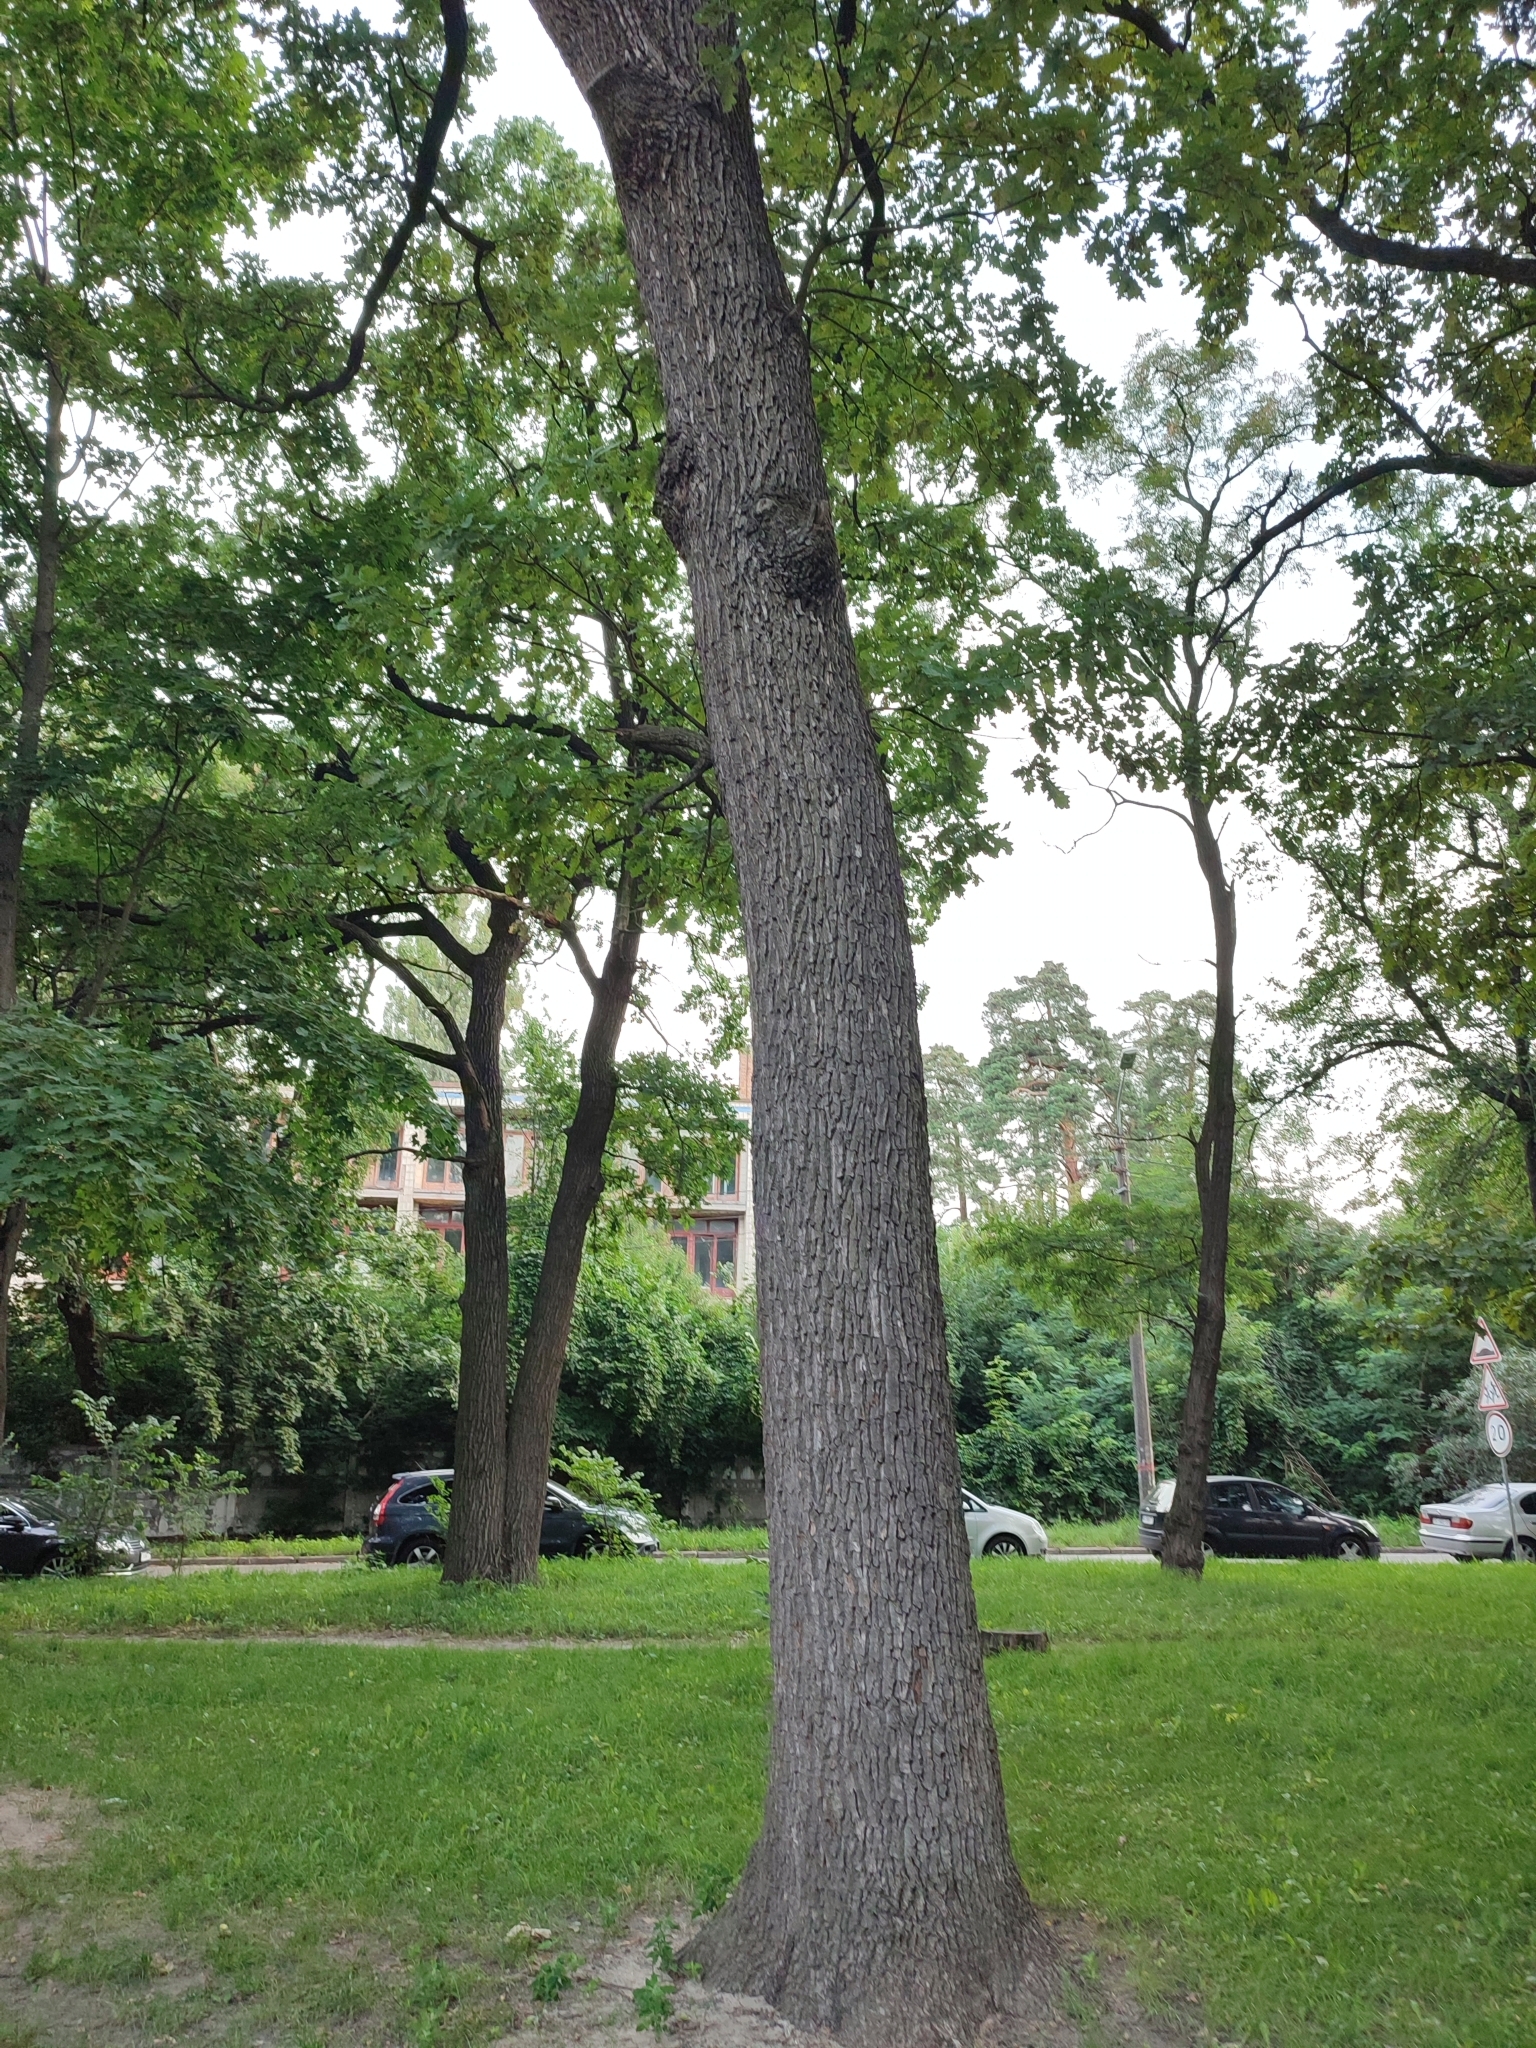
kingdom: Plantae
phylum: Tracheophyta
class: Magnoliopsida
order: Fagales
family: Fagaceae
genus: Quercus
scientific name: Quercus robur
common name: Pedunculate oak
